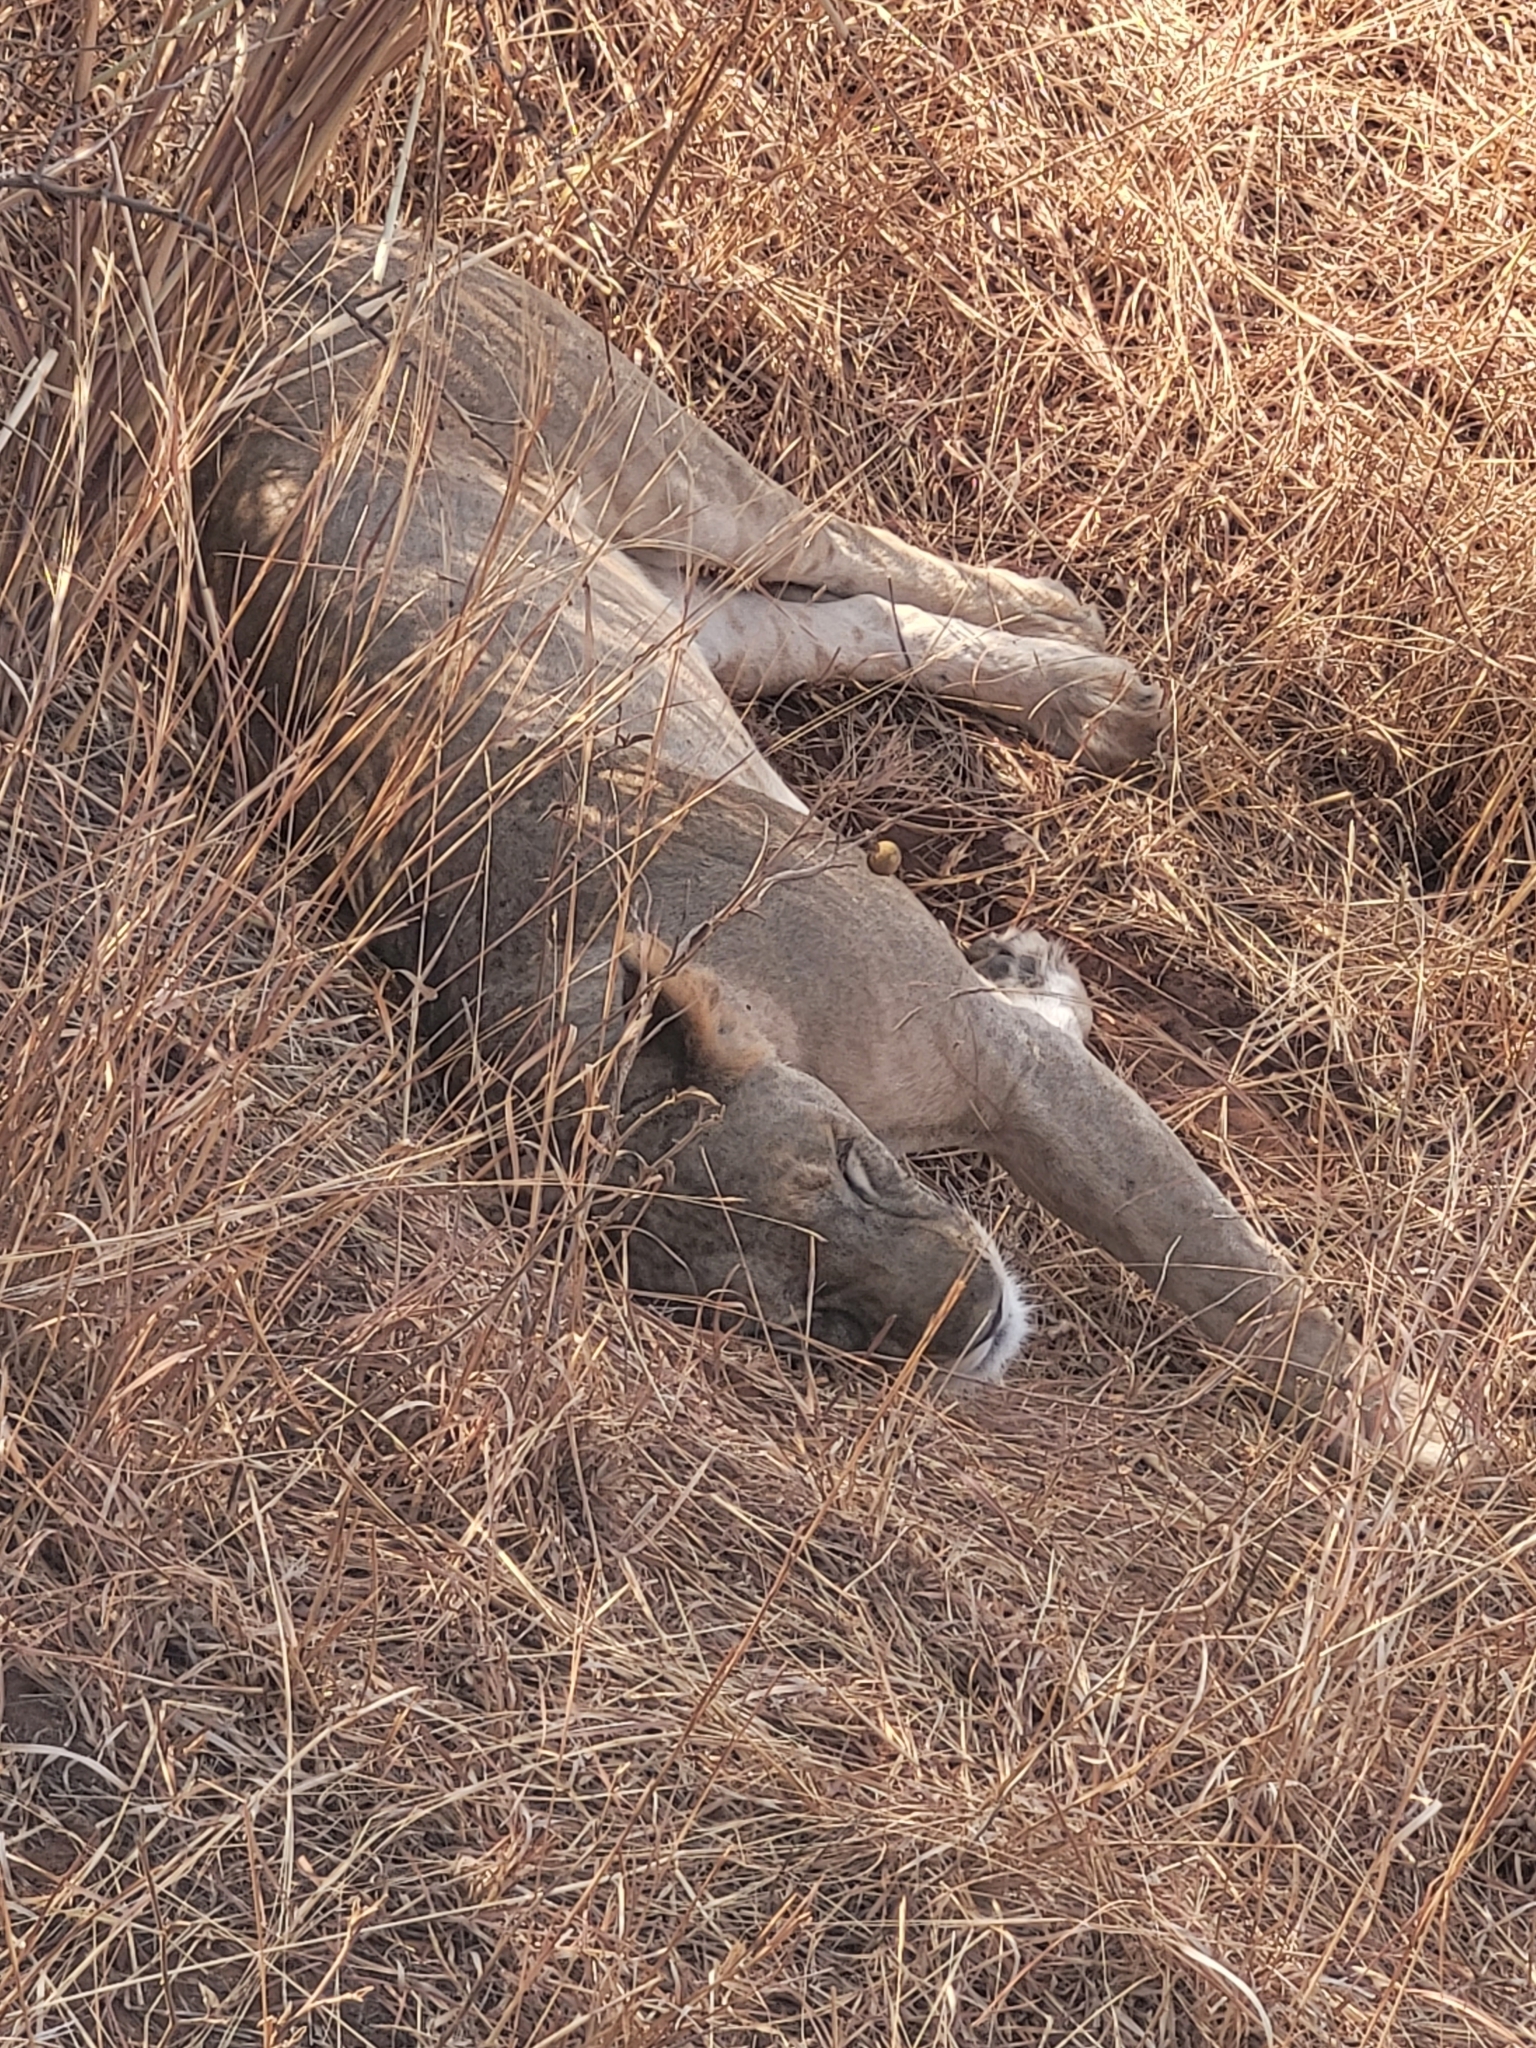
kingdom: Animalia
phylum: Chordata
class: Mammalia
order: Carnivora
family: Felidae
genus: Panthera
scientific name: Panthera leo
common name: Lion
